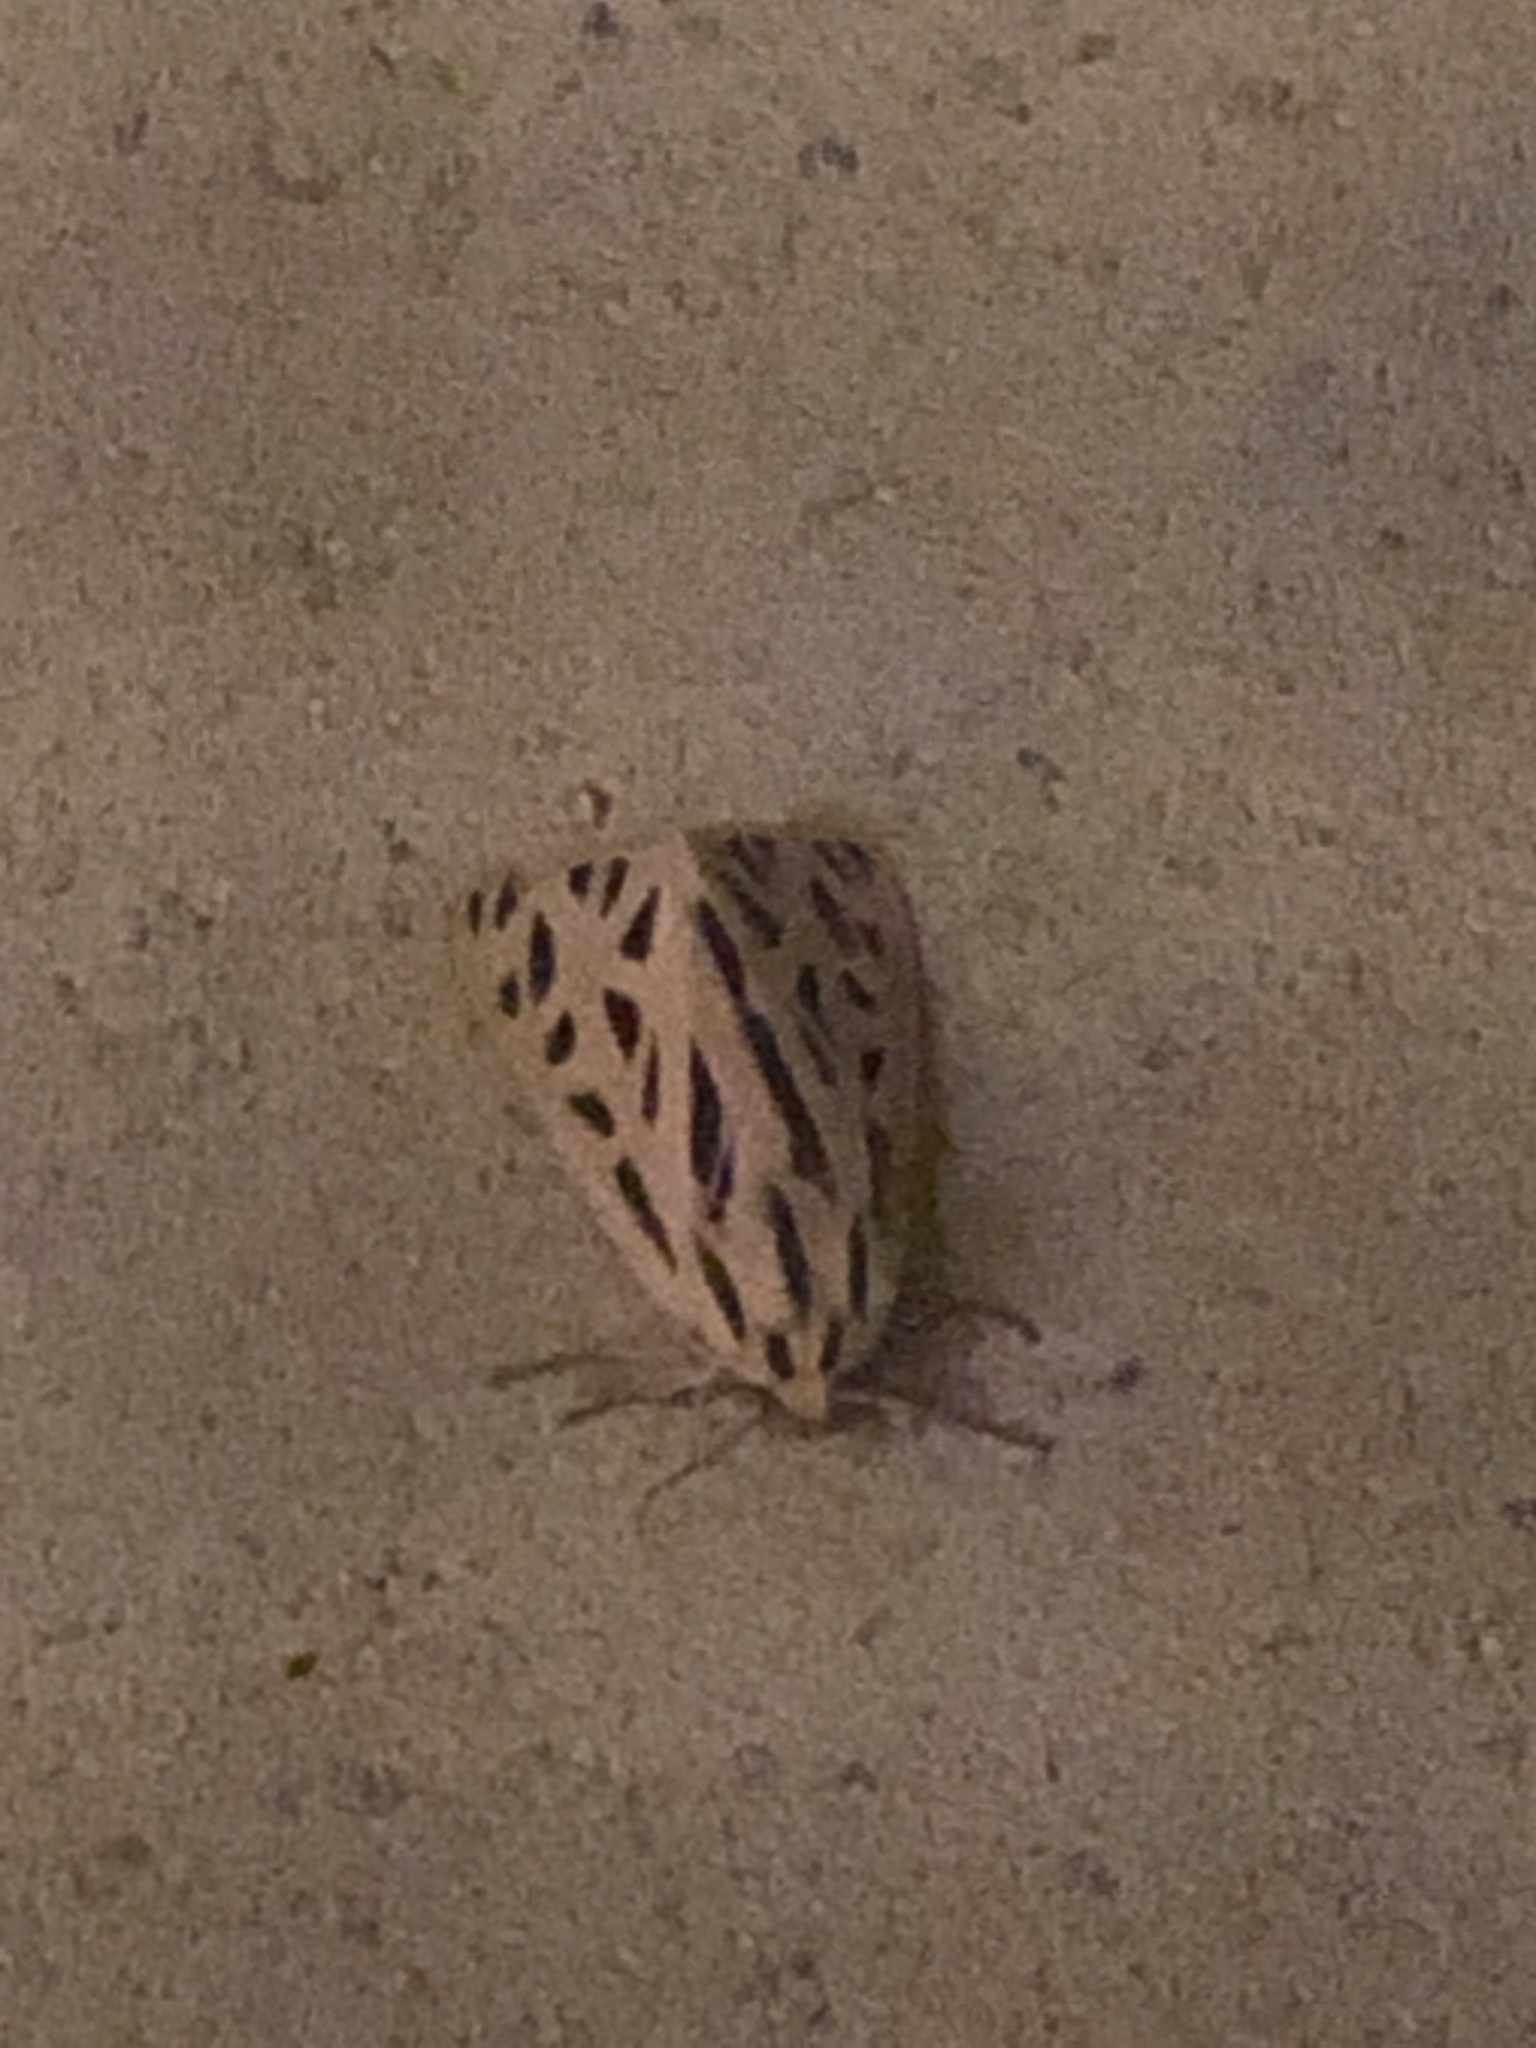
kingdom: Animalia
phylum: Arthropoda
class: Insecta
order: Lepidoptera
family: Erebidae
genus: Apantesis
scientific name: Apantesis arge
